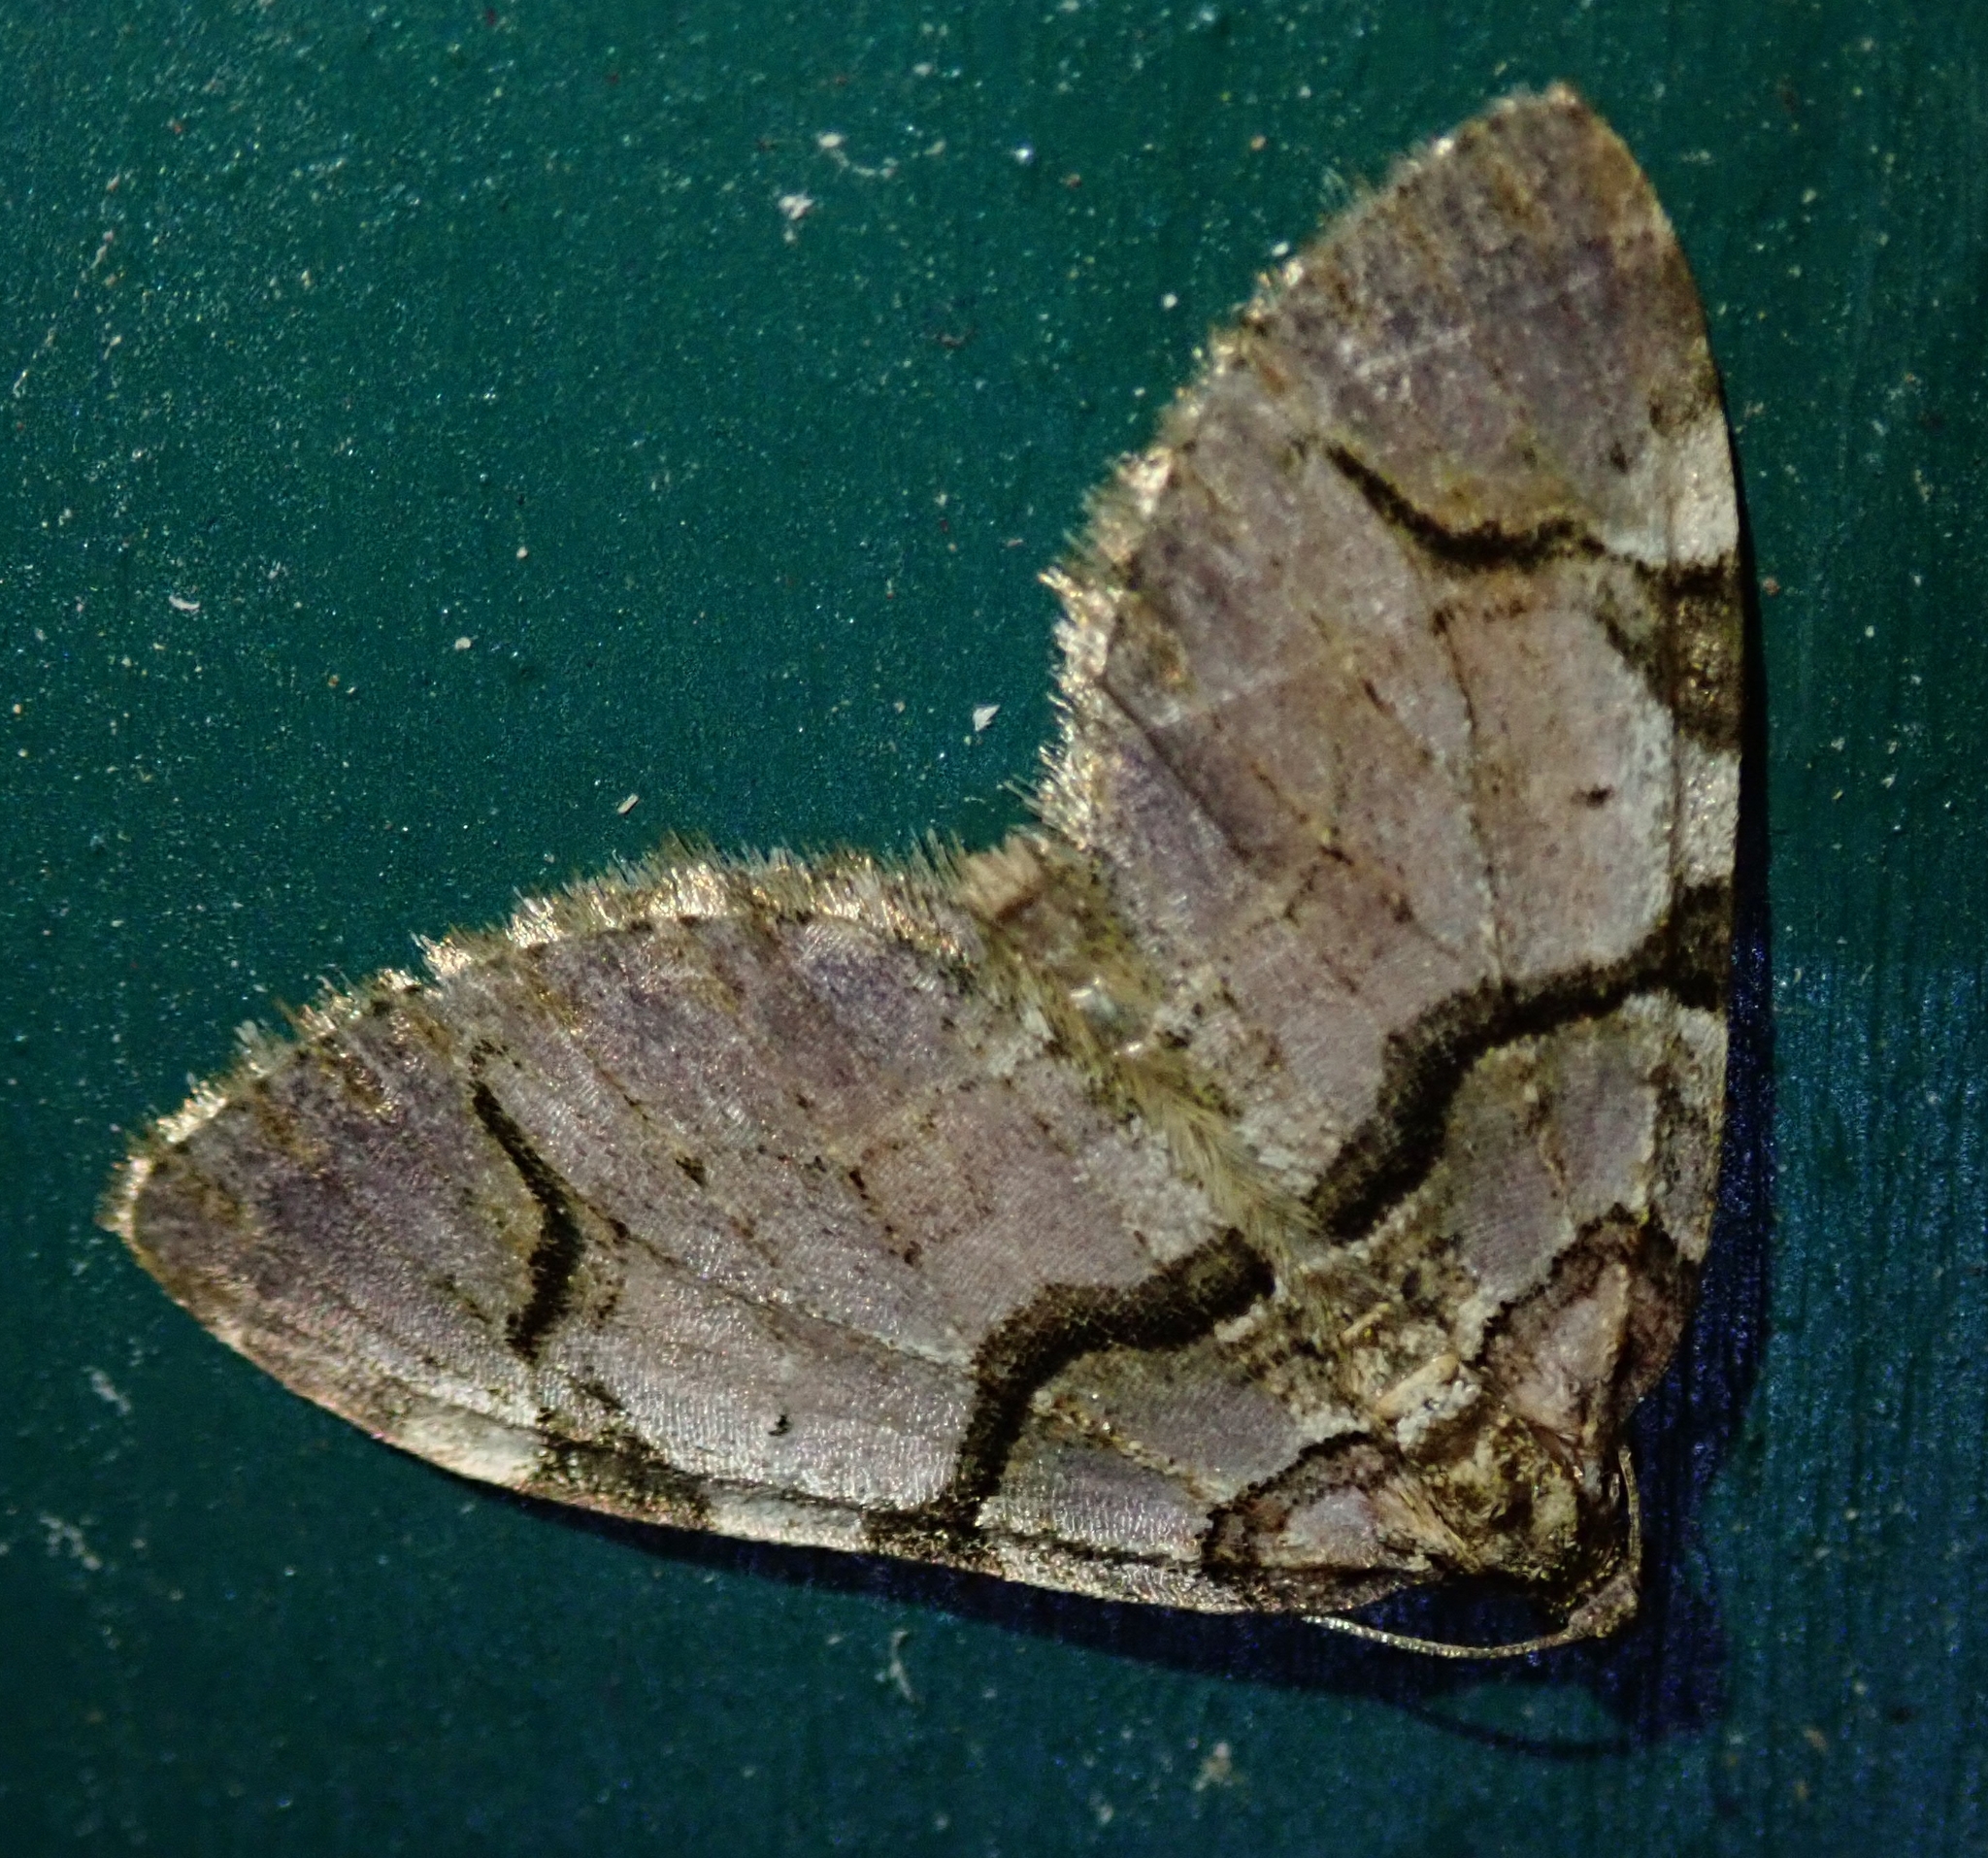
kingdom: Animalia
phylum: Arthropoda
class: Insecta
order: Lepidoptera
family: Geometridae
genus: Anticlea
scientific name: Anticlea derivata
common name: Streamer
